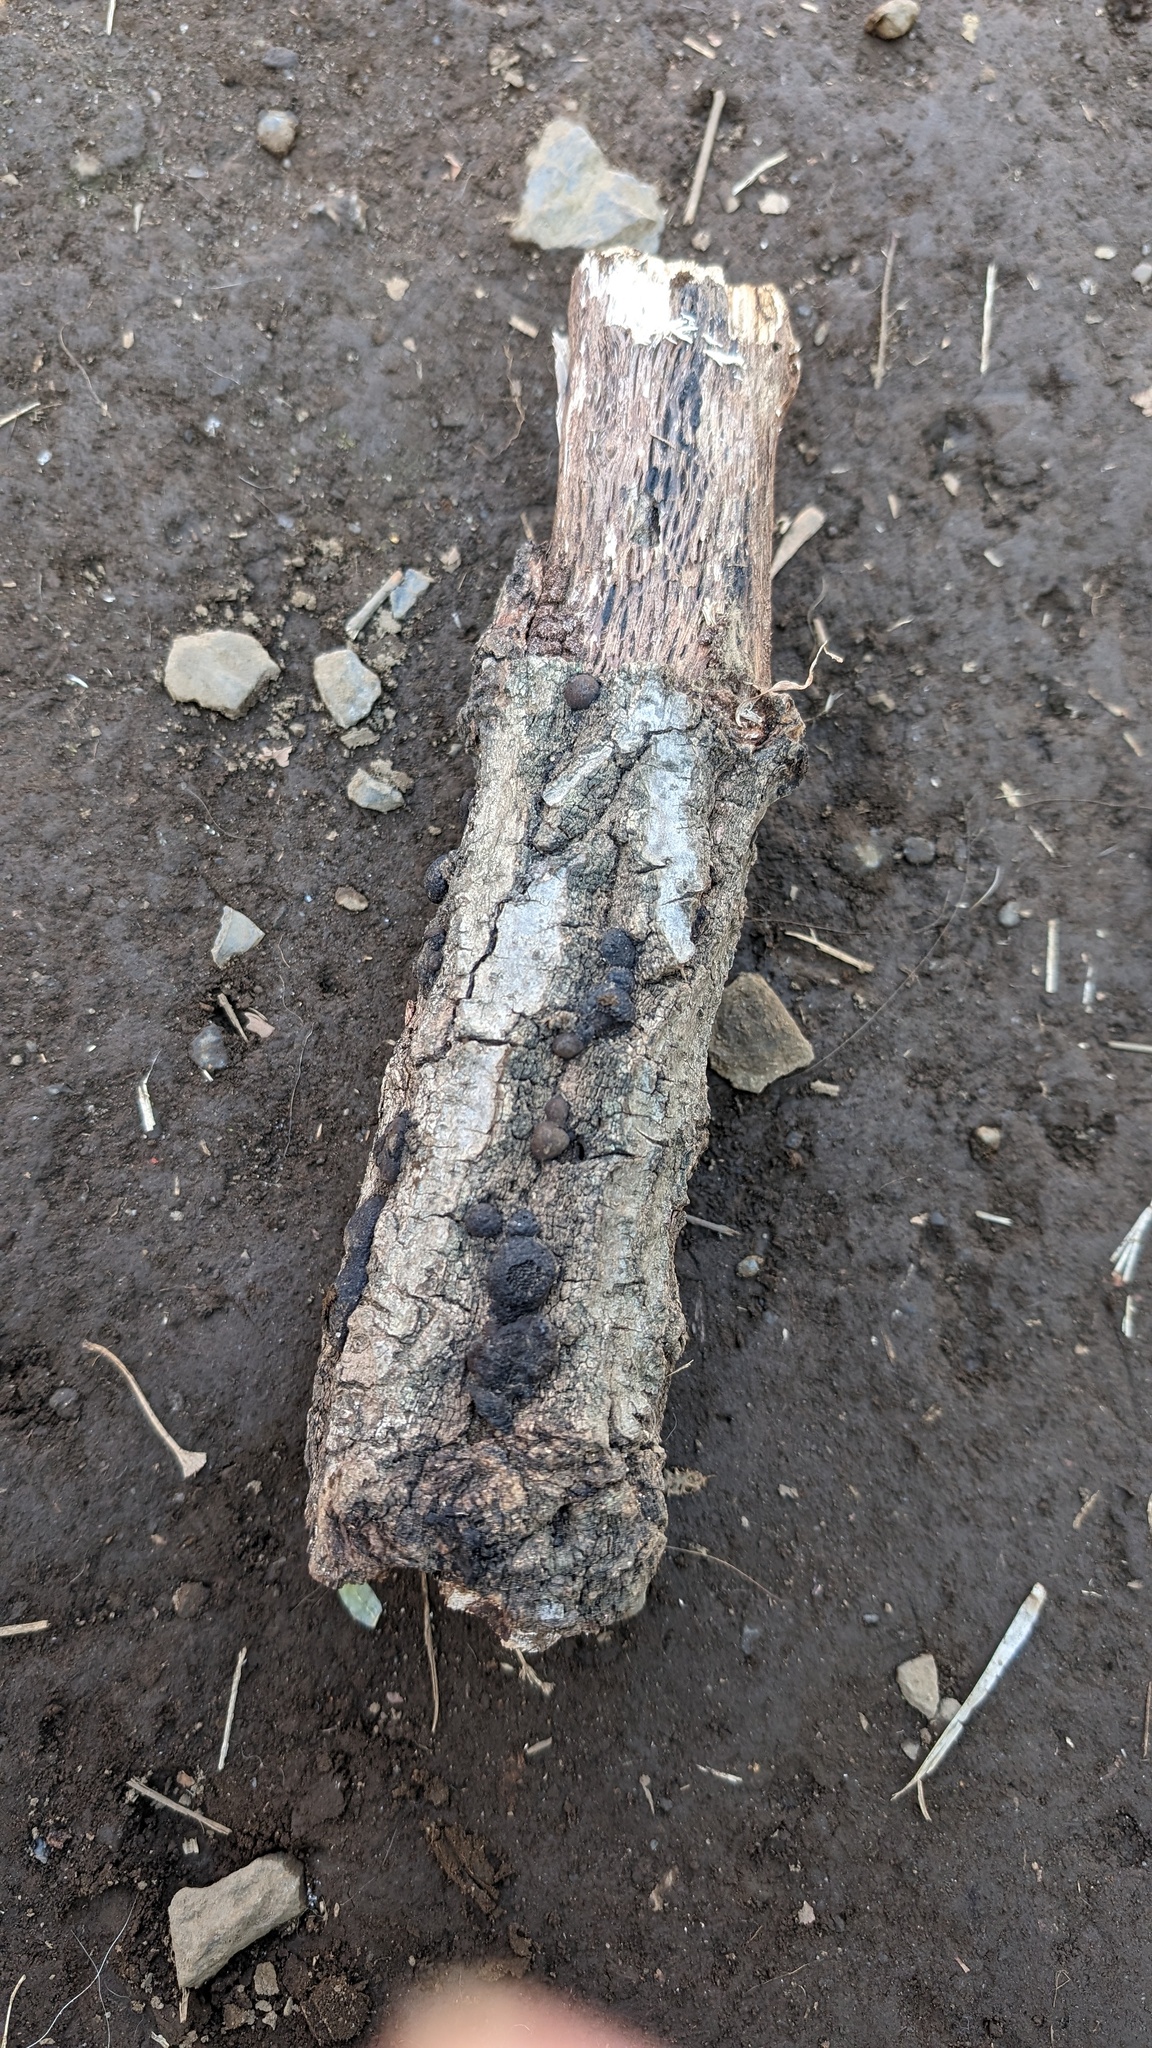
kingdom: Fungi
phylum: Ascomycota
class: Sordariomycetes
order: Xylariales
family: Hypoxylaceae
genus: Annulohypoxylon
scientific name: Annulohypoxylon truncatum
